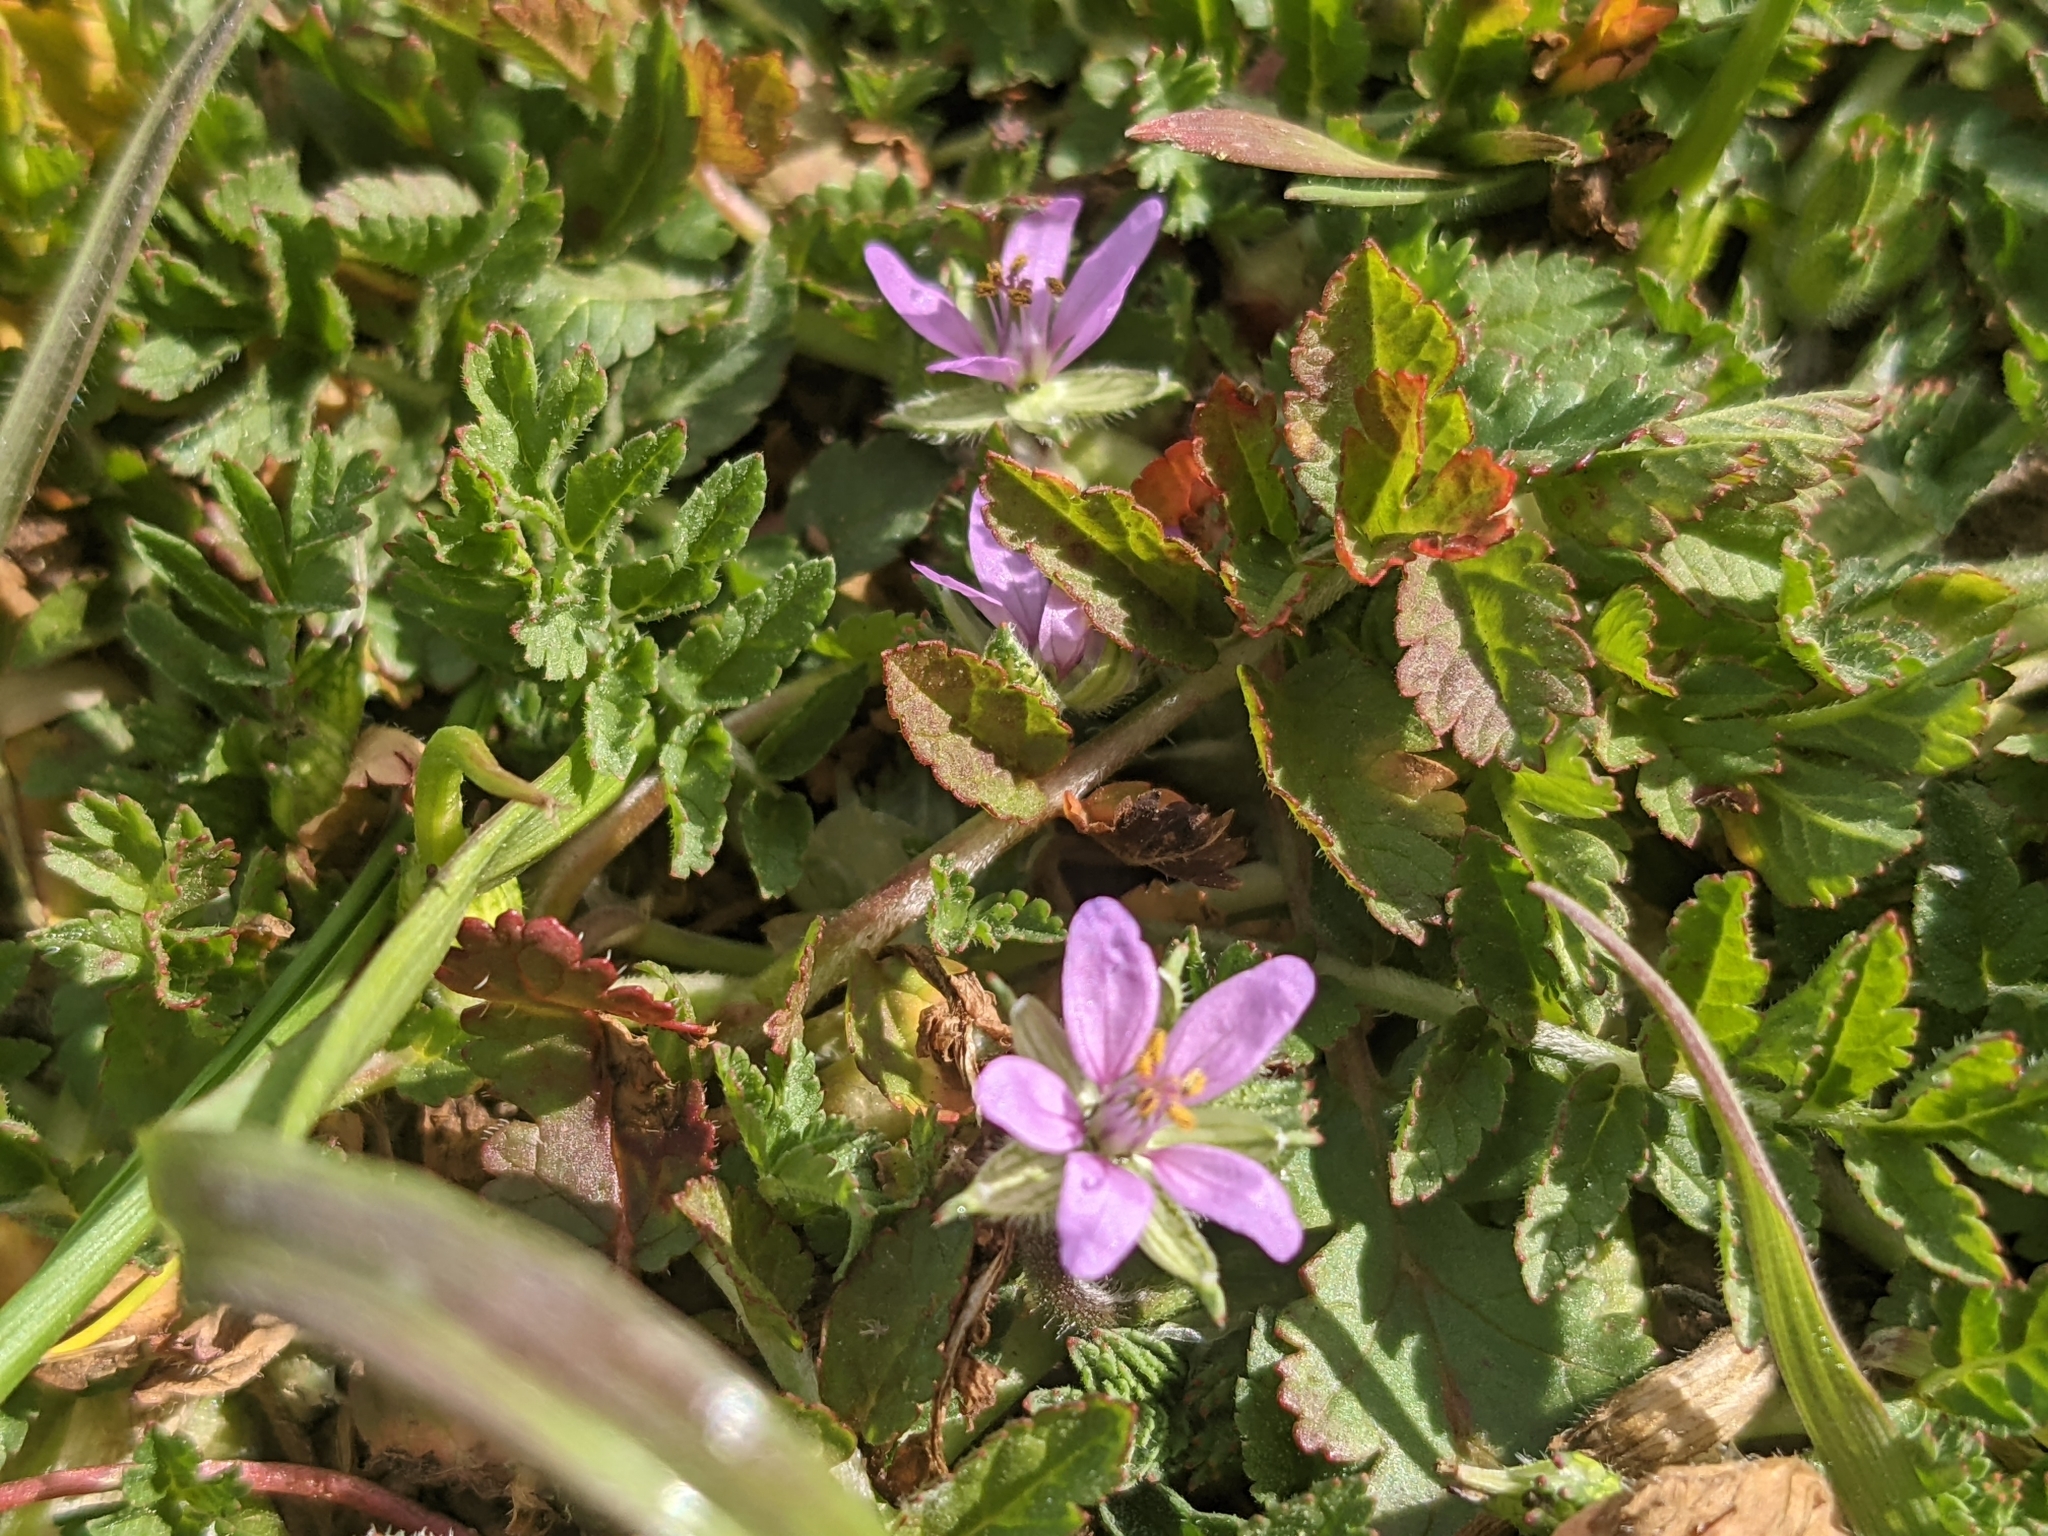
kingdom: Plantae
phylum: Tracheophyta
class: Magnoliopsida
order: Geraniales
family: Geraniaceae
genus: Erodium
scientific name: Erodium moschatum
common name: Musk stork's-bill
